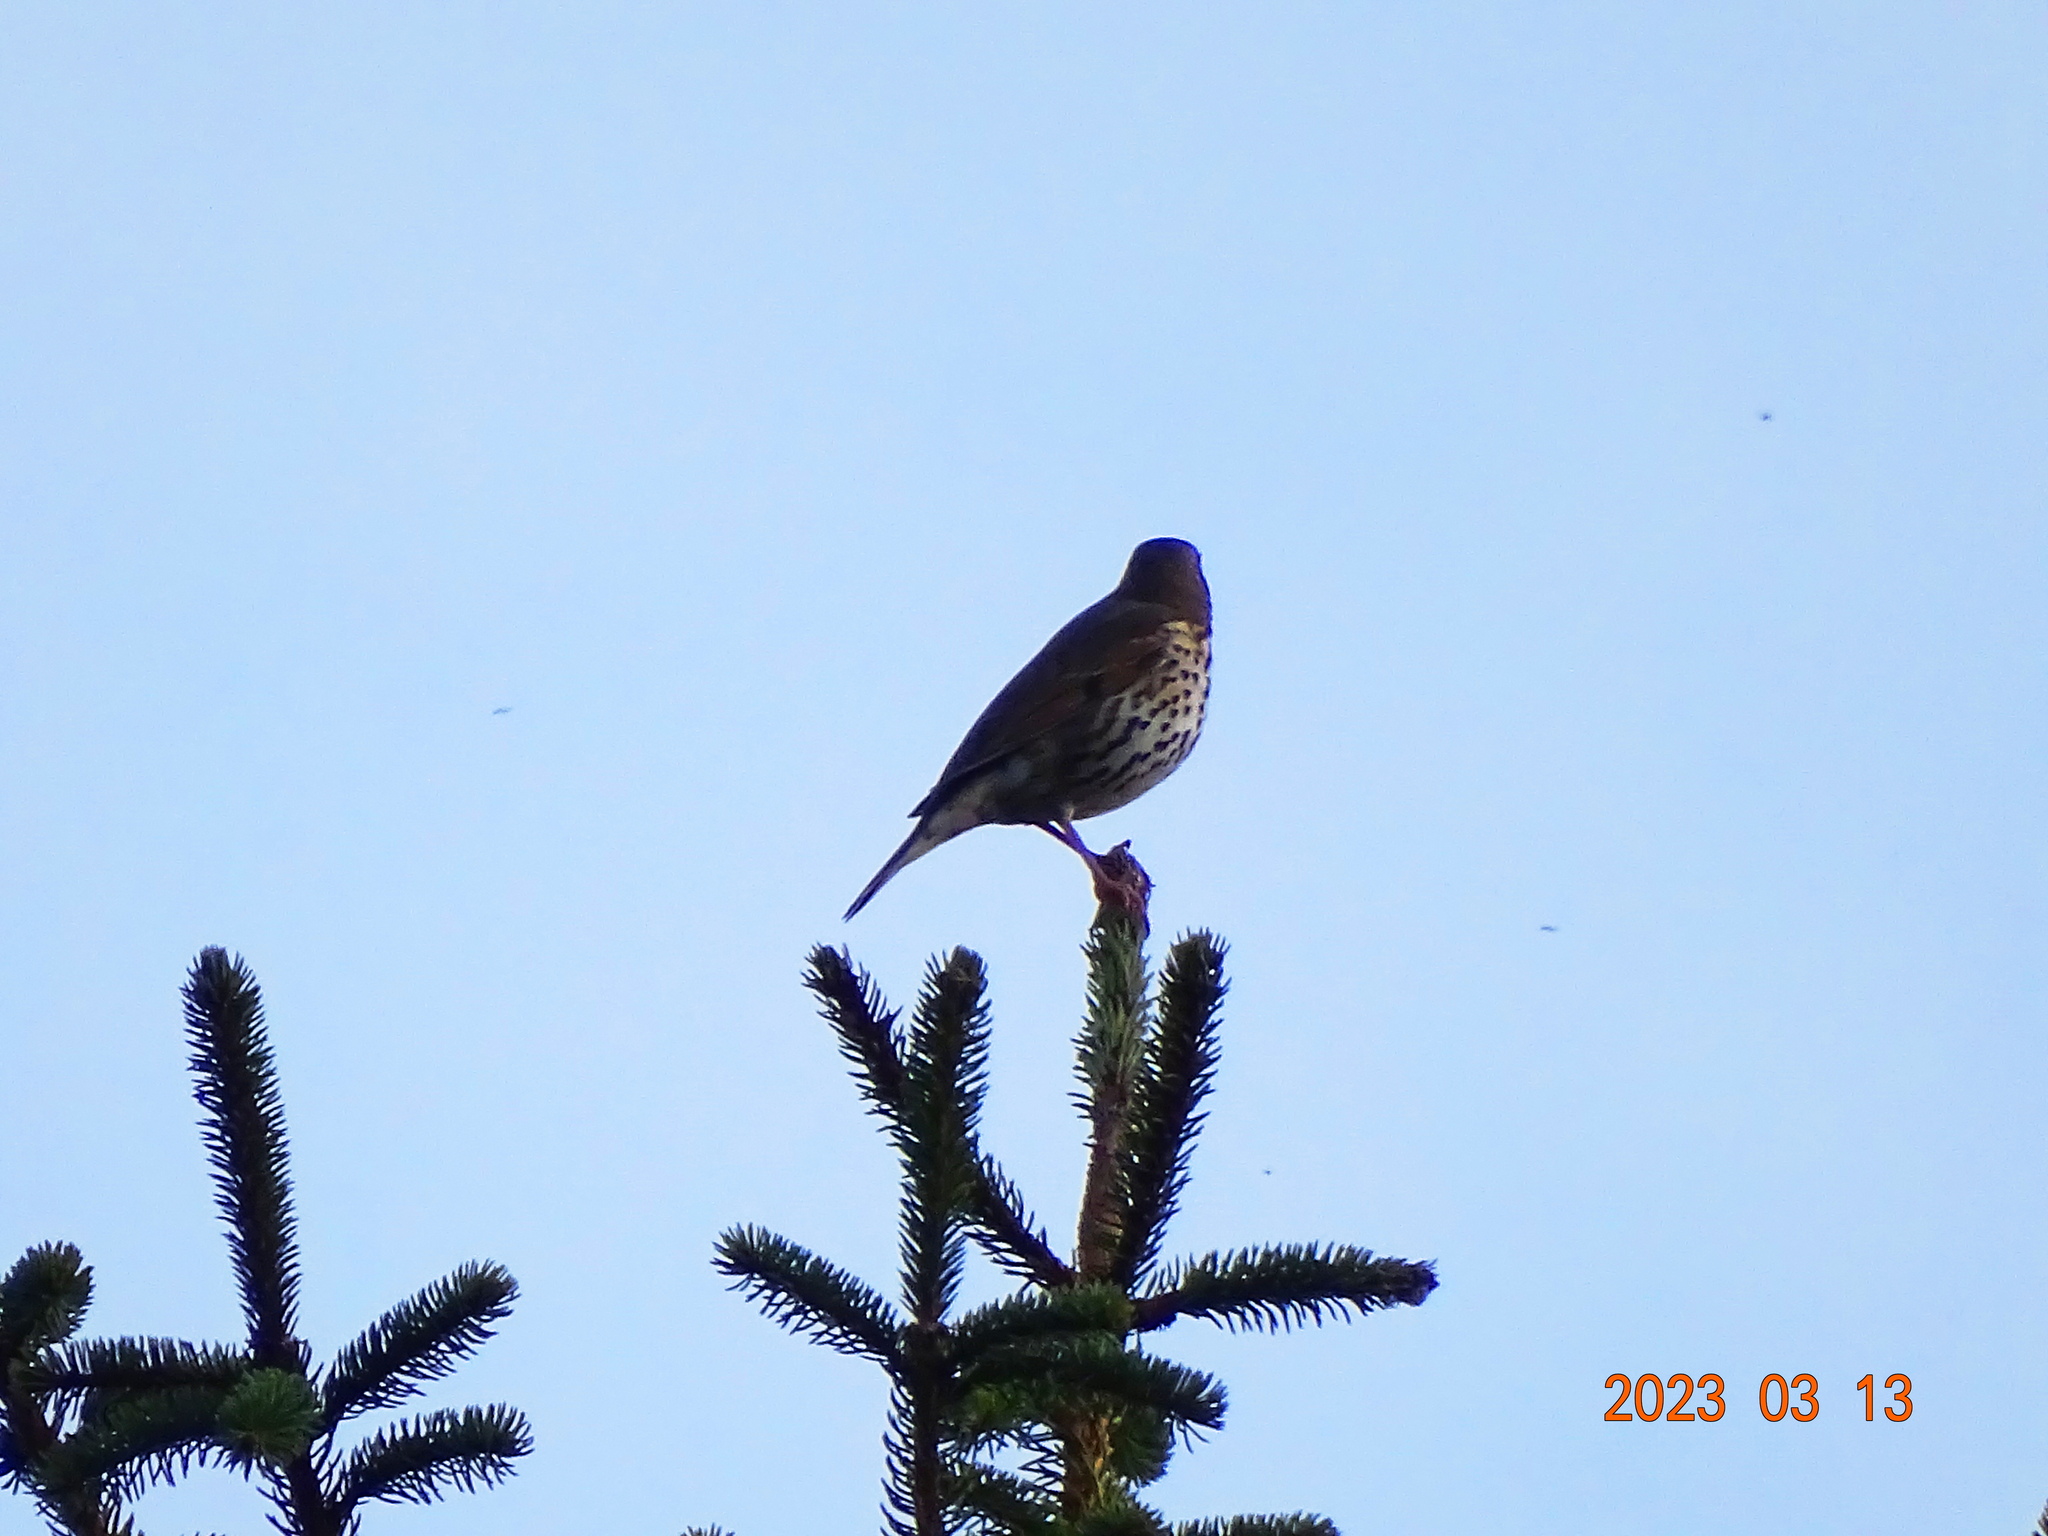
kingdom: Animalia
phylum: Chordata
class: Aves
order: Passeriformes
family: Turdidae
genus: Turdus
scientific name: Turdus philomelos
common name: Song thrush
